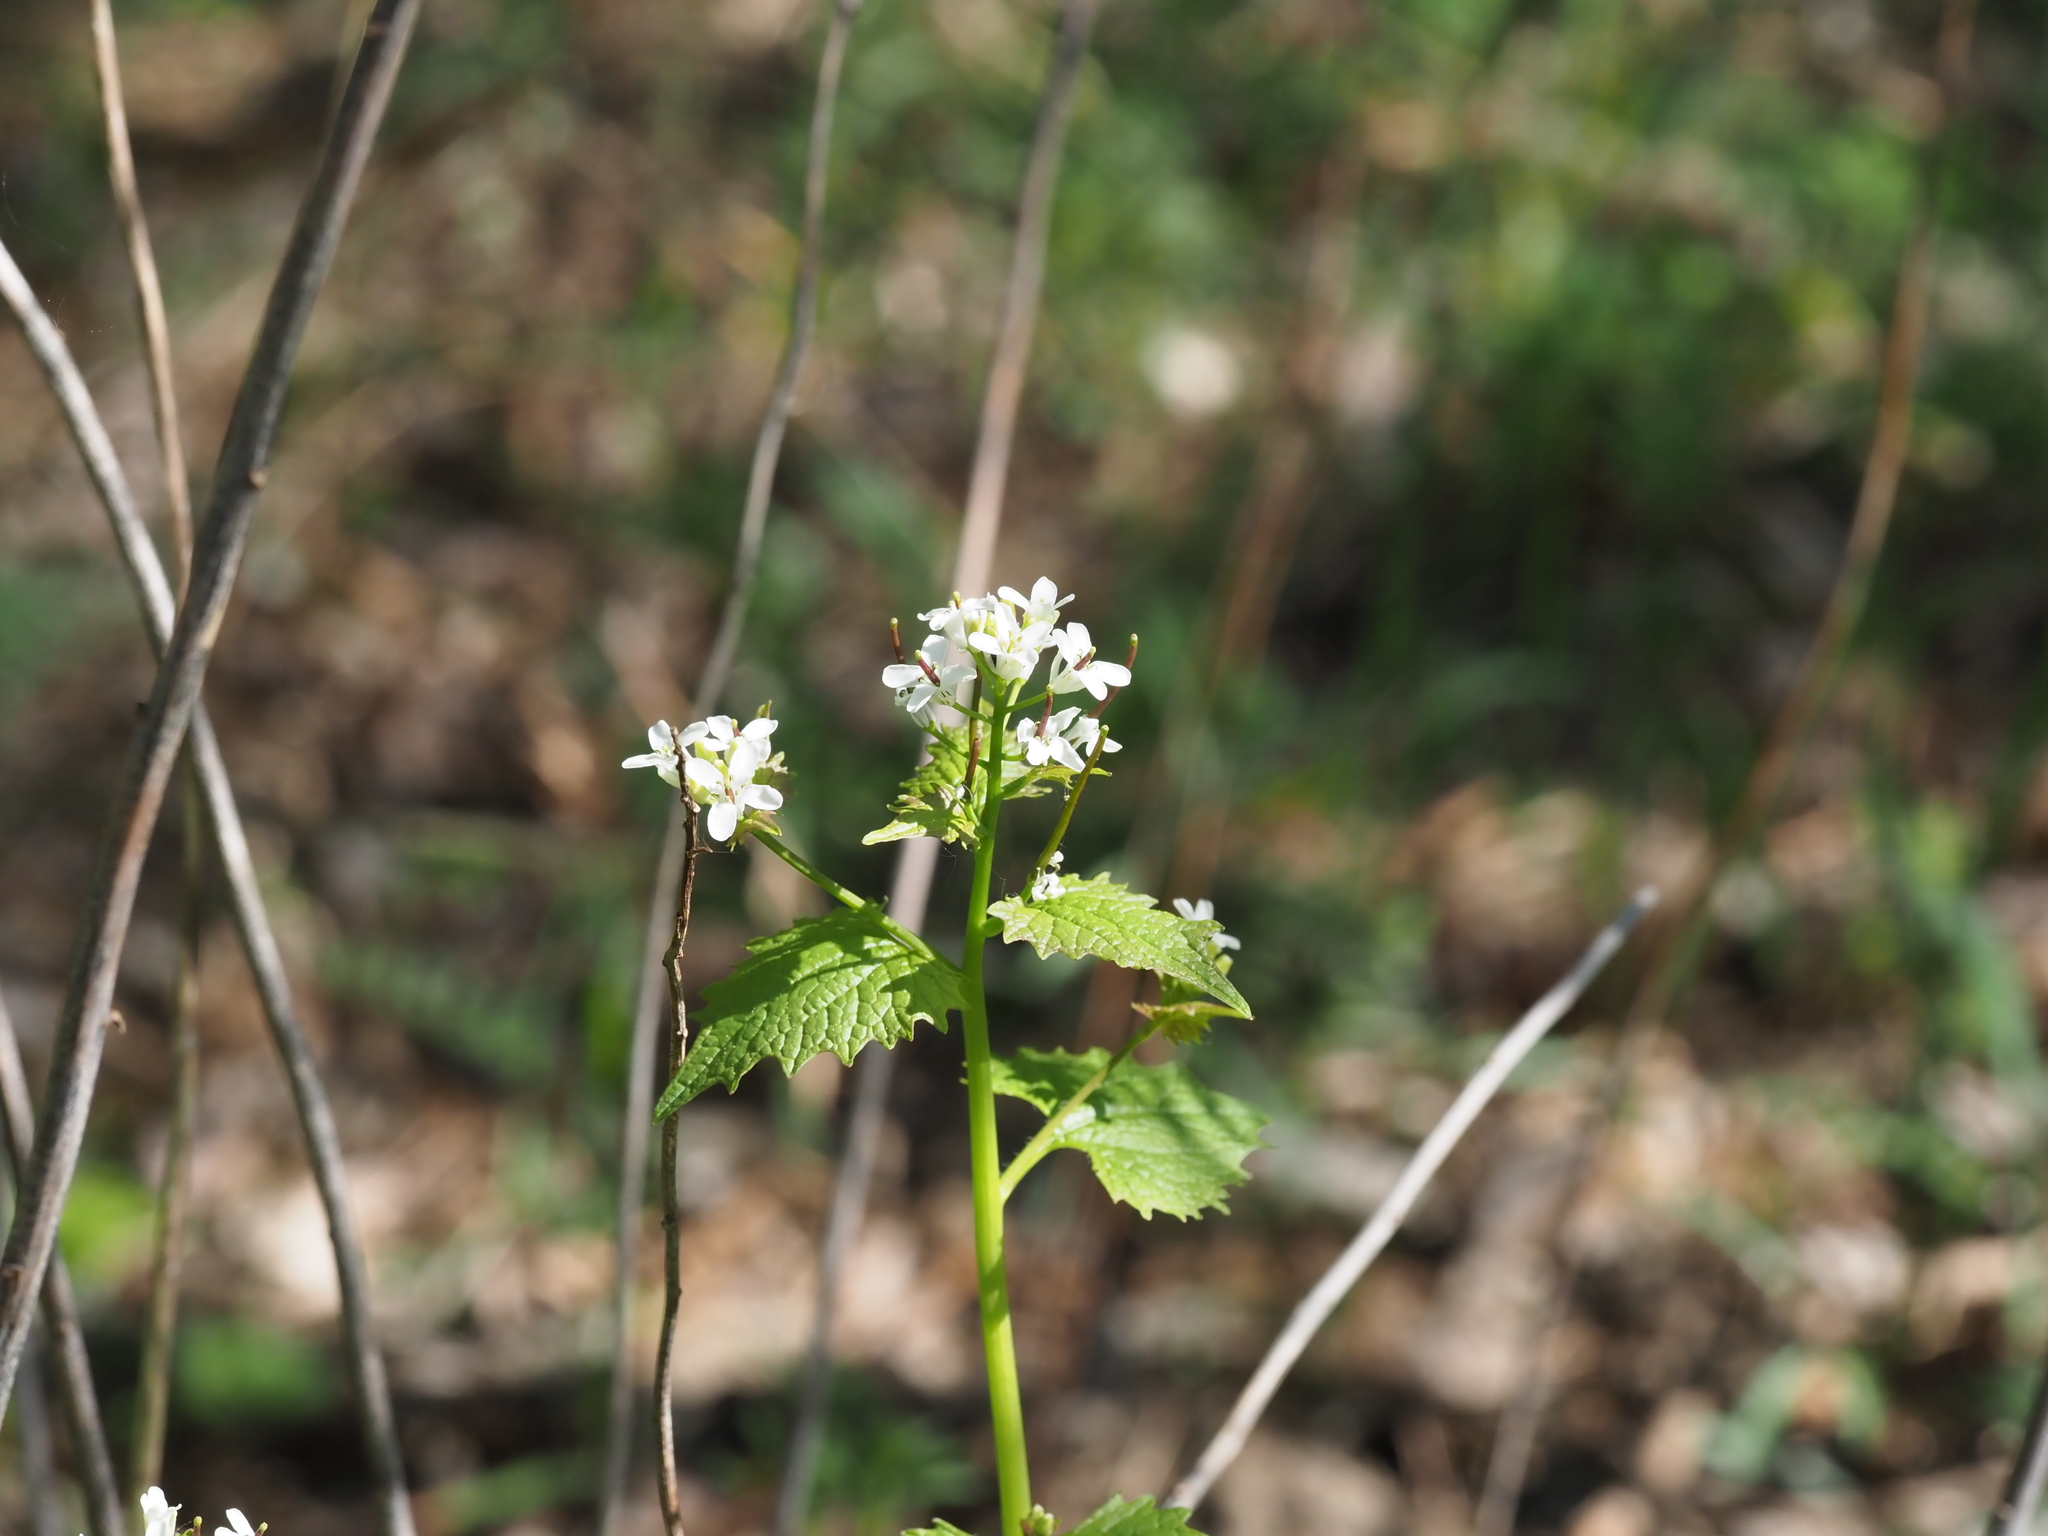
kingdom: Plantae
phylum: Tracheophyta
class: Magnoliopsida
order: Brassicales
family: Brassicaceae
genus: Alliaria
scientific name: Alliaria petiolata
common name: Garlic mustard
